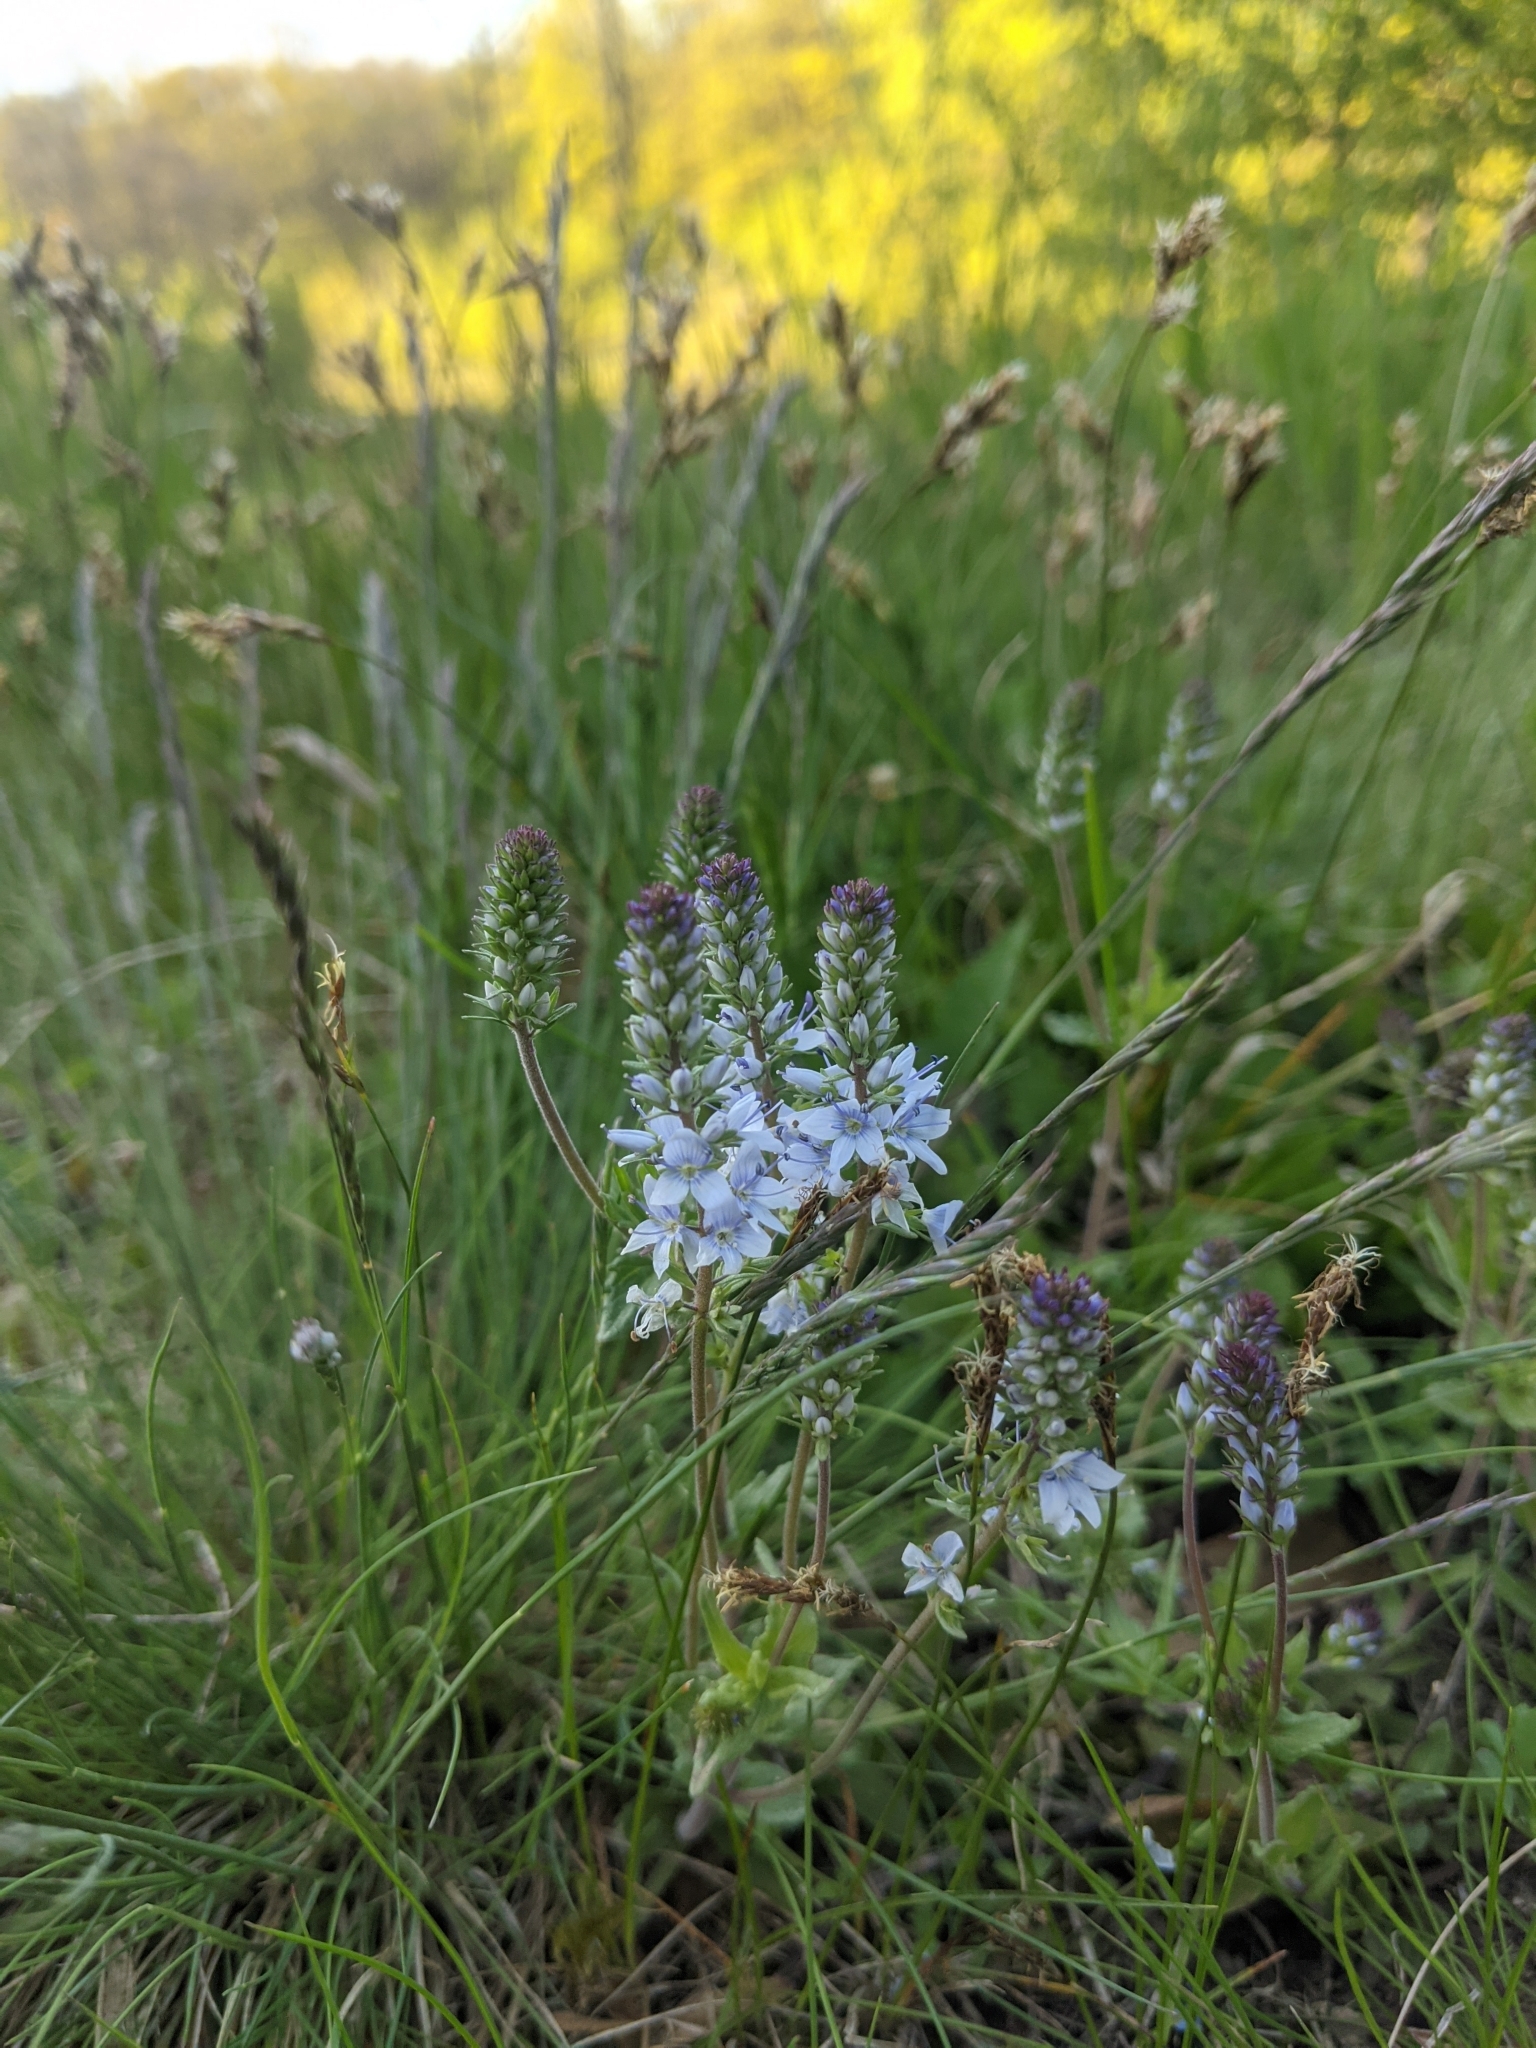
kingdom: Plantae
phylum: Tracheophyta
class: Magnoliopsida
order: Lamiales
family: Plantaginaceae
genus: Veronica
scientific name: Veronica prostrata
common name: Prostrate speedwell
